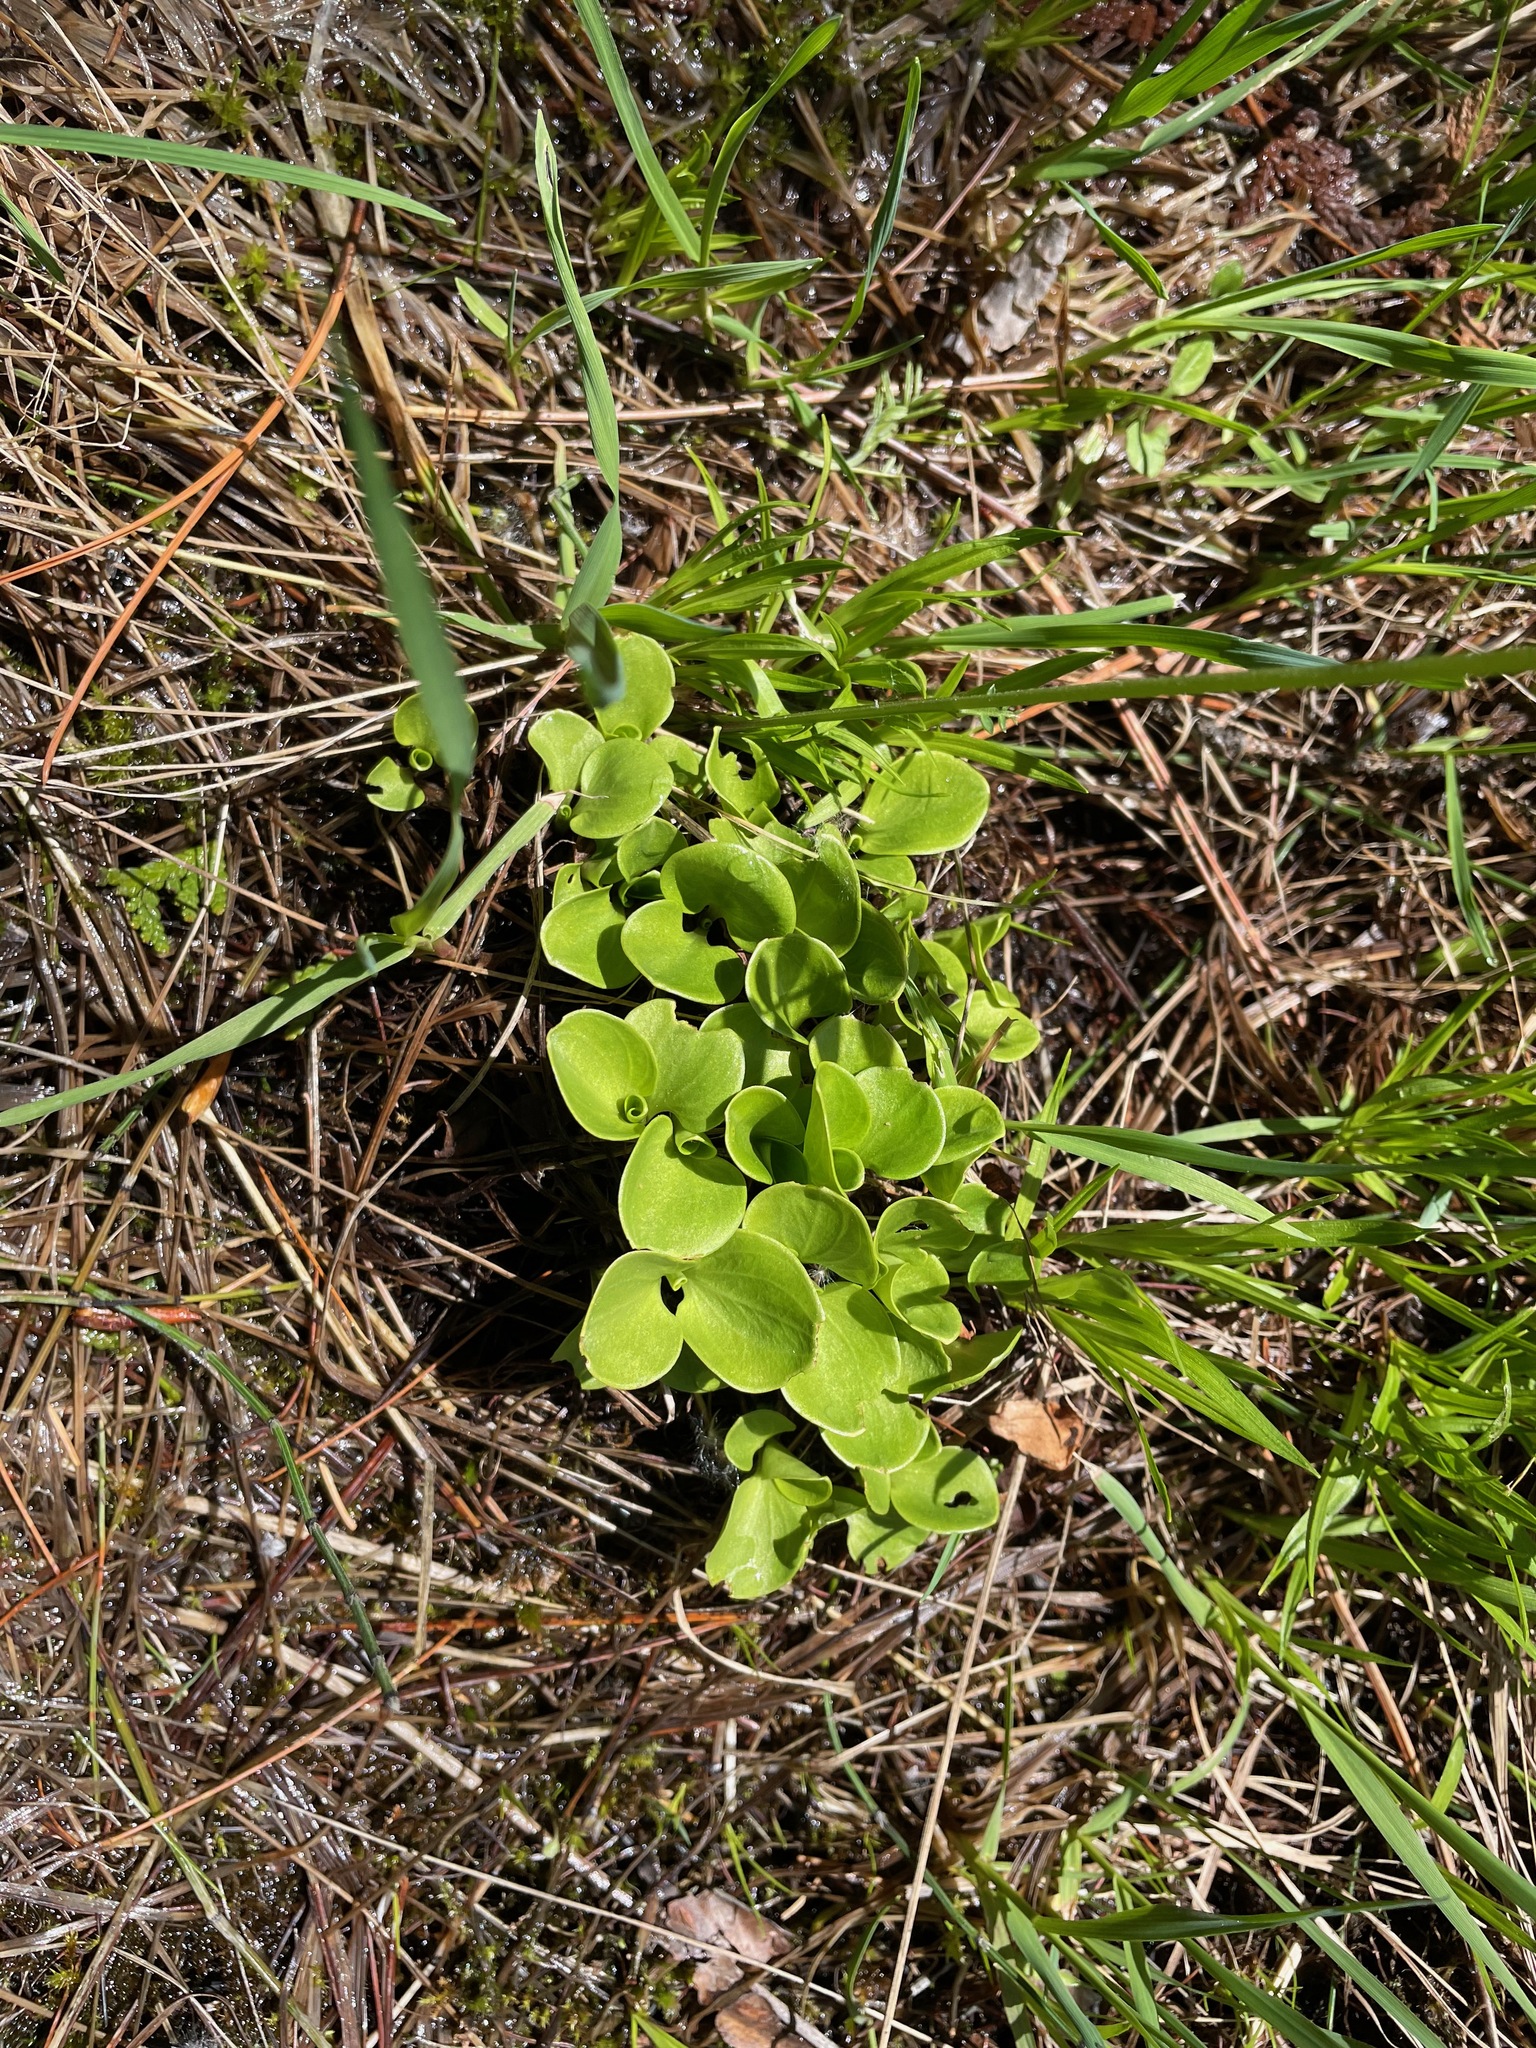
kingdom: Plantae
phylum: Tracheophyta
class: Magnoliopsida
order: Celastrales
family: Parnassiaceae
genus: Parnassia
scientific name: Parnassia glauca
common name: American grass-of-parnassus
